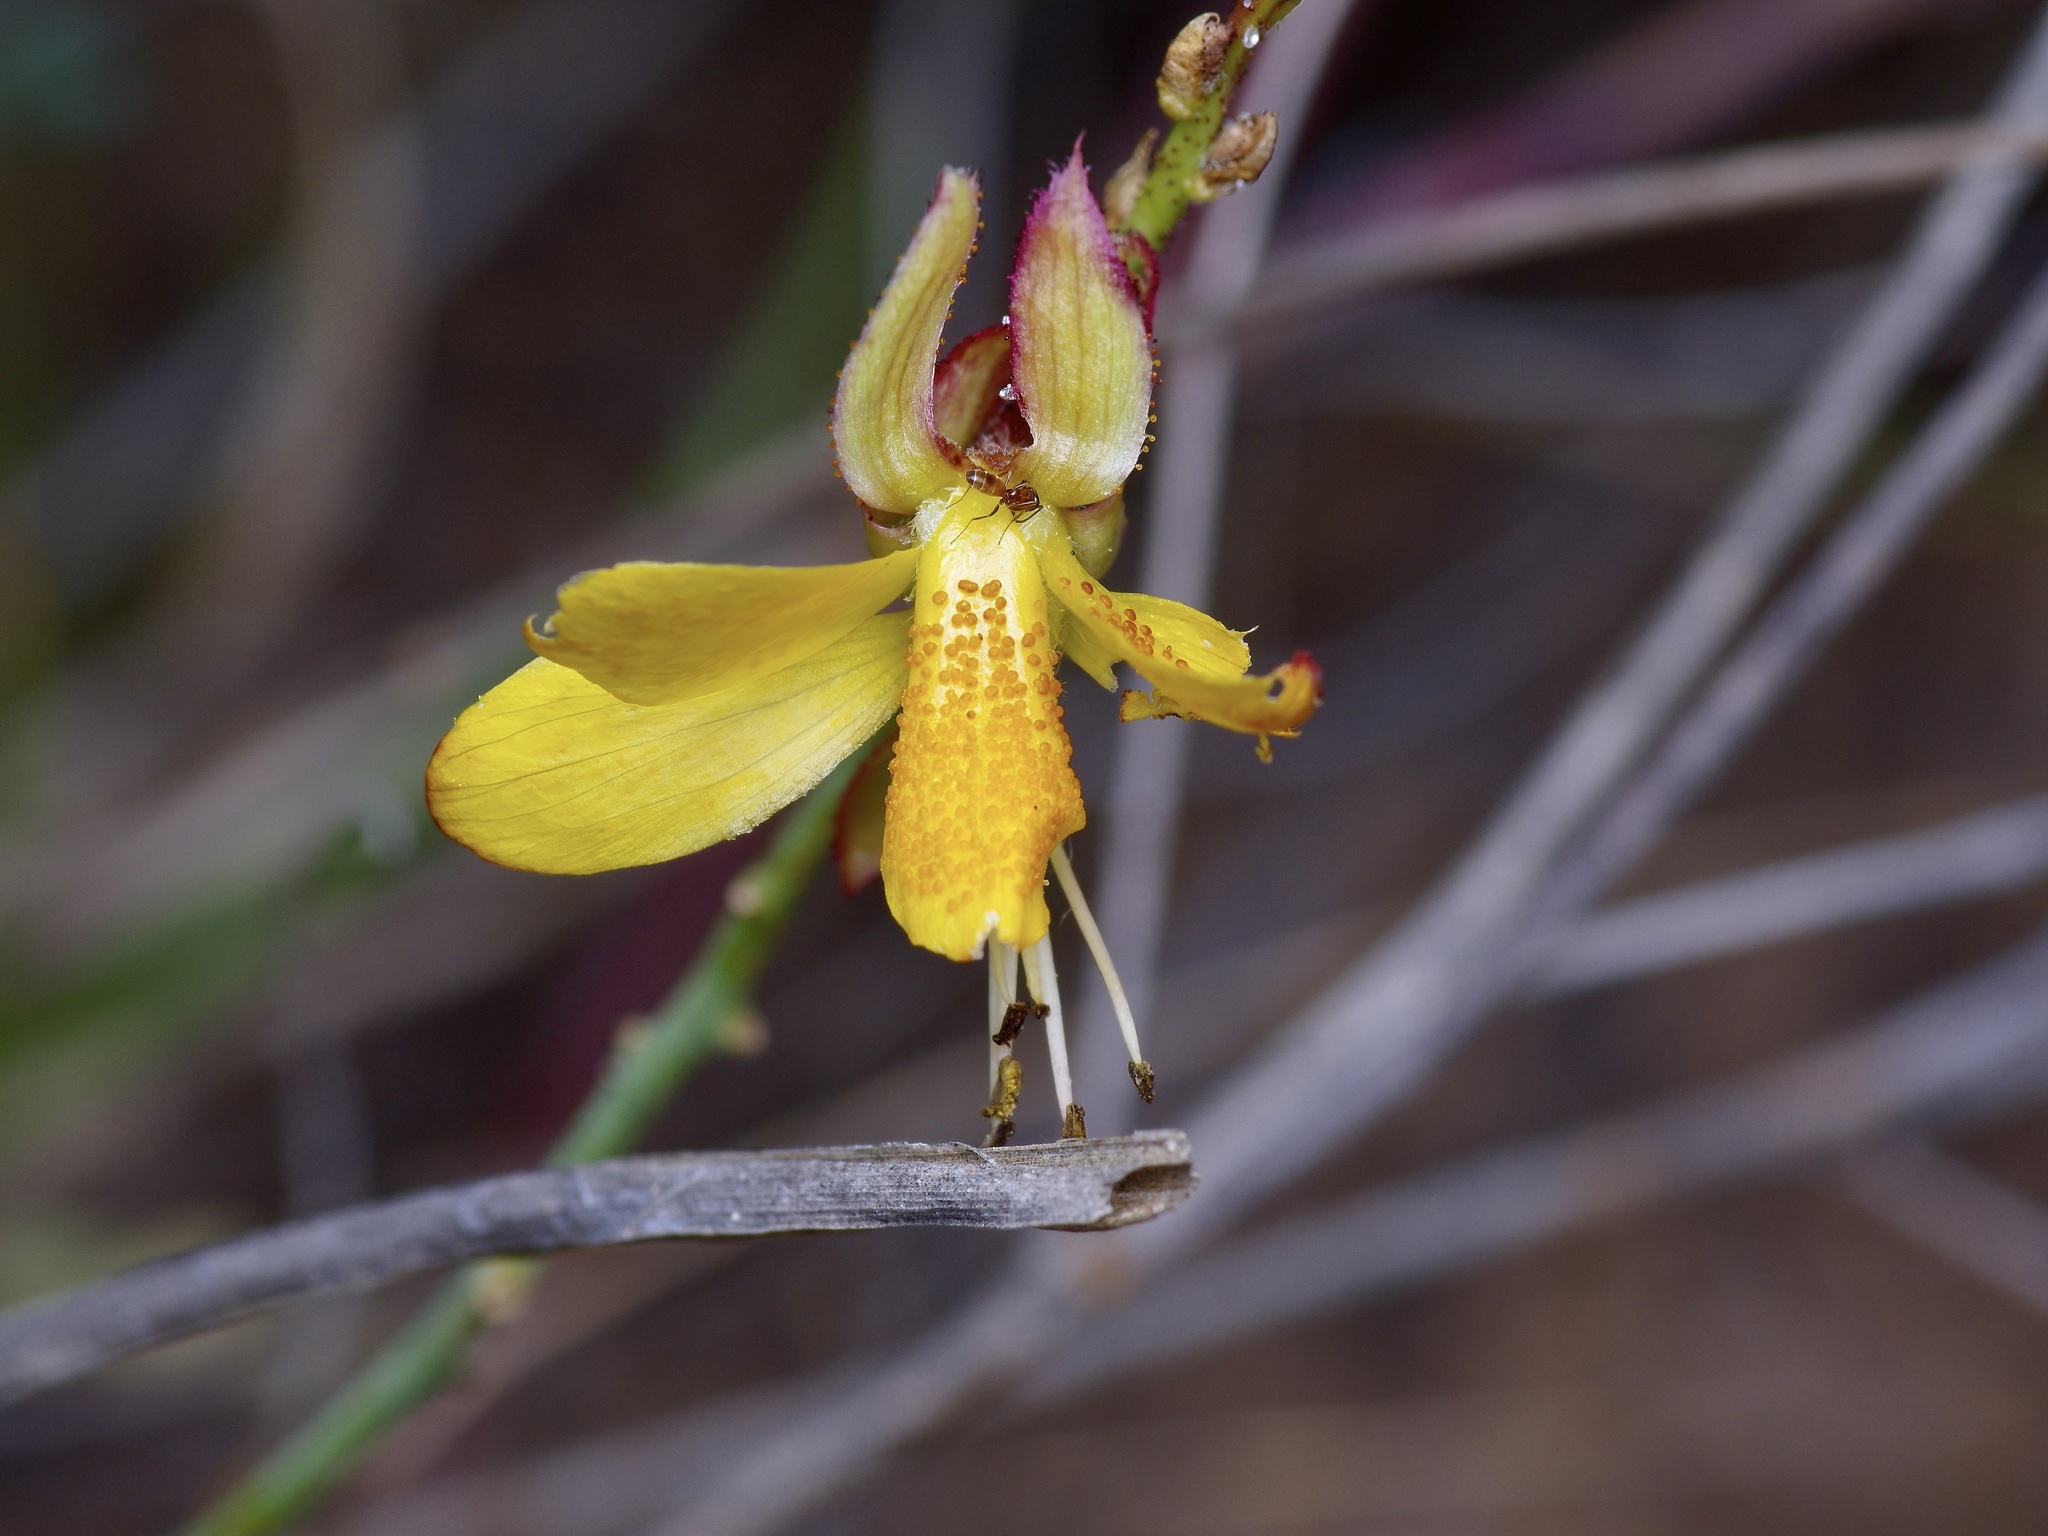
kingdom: Plantae
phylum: Tracheophyta
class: Magnoliopsida
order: Fabales
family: Fabaceae
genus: Erythrostemon
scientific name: Erythrostemon caudatus
